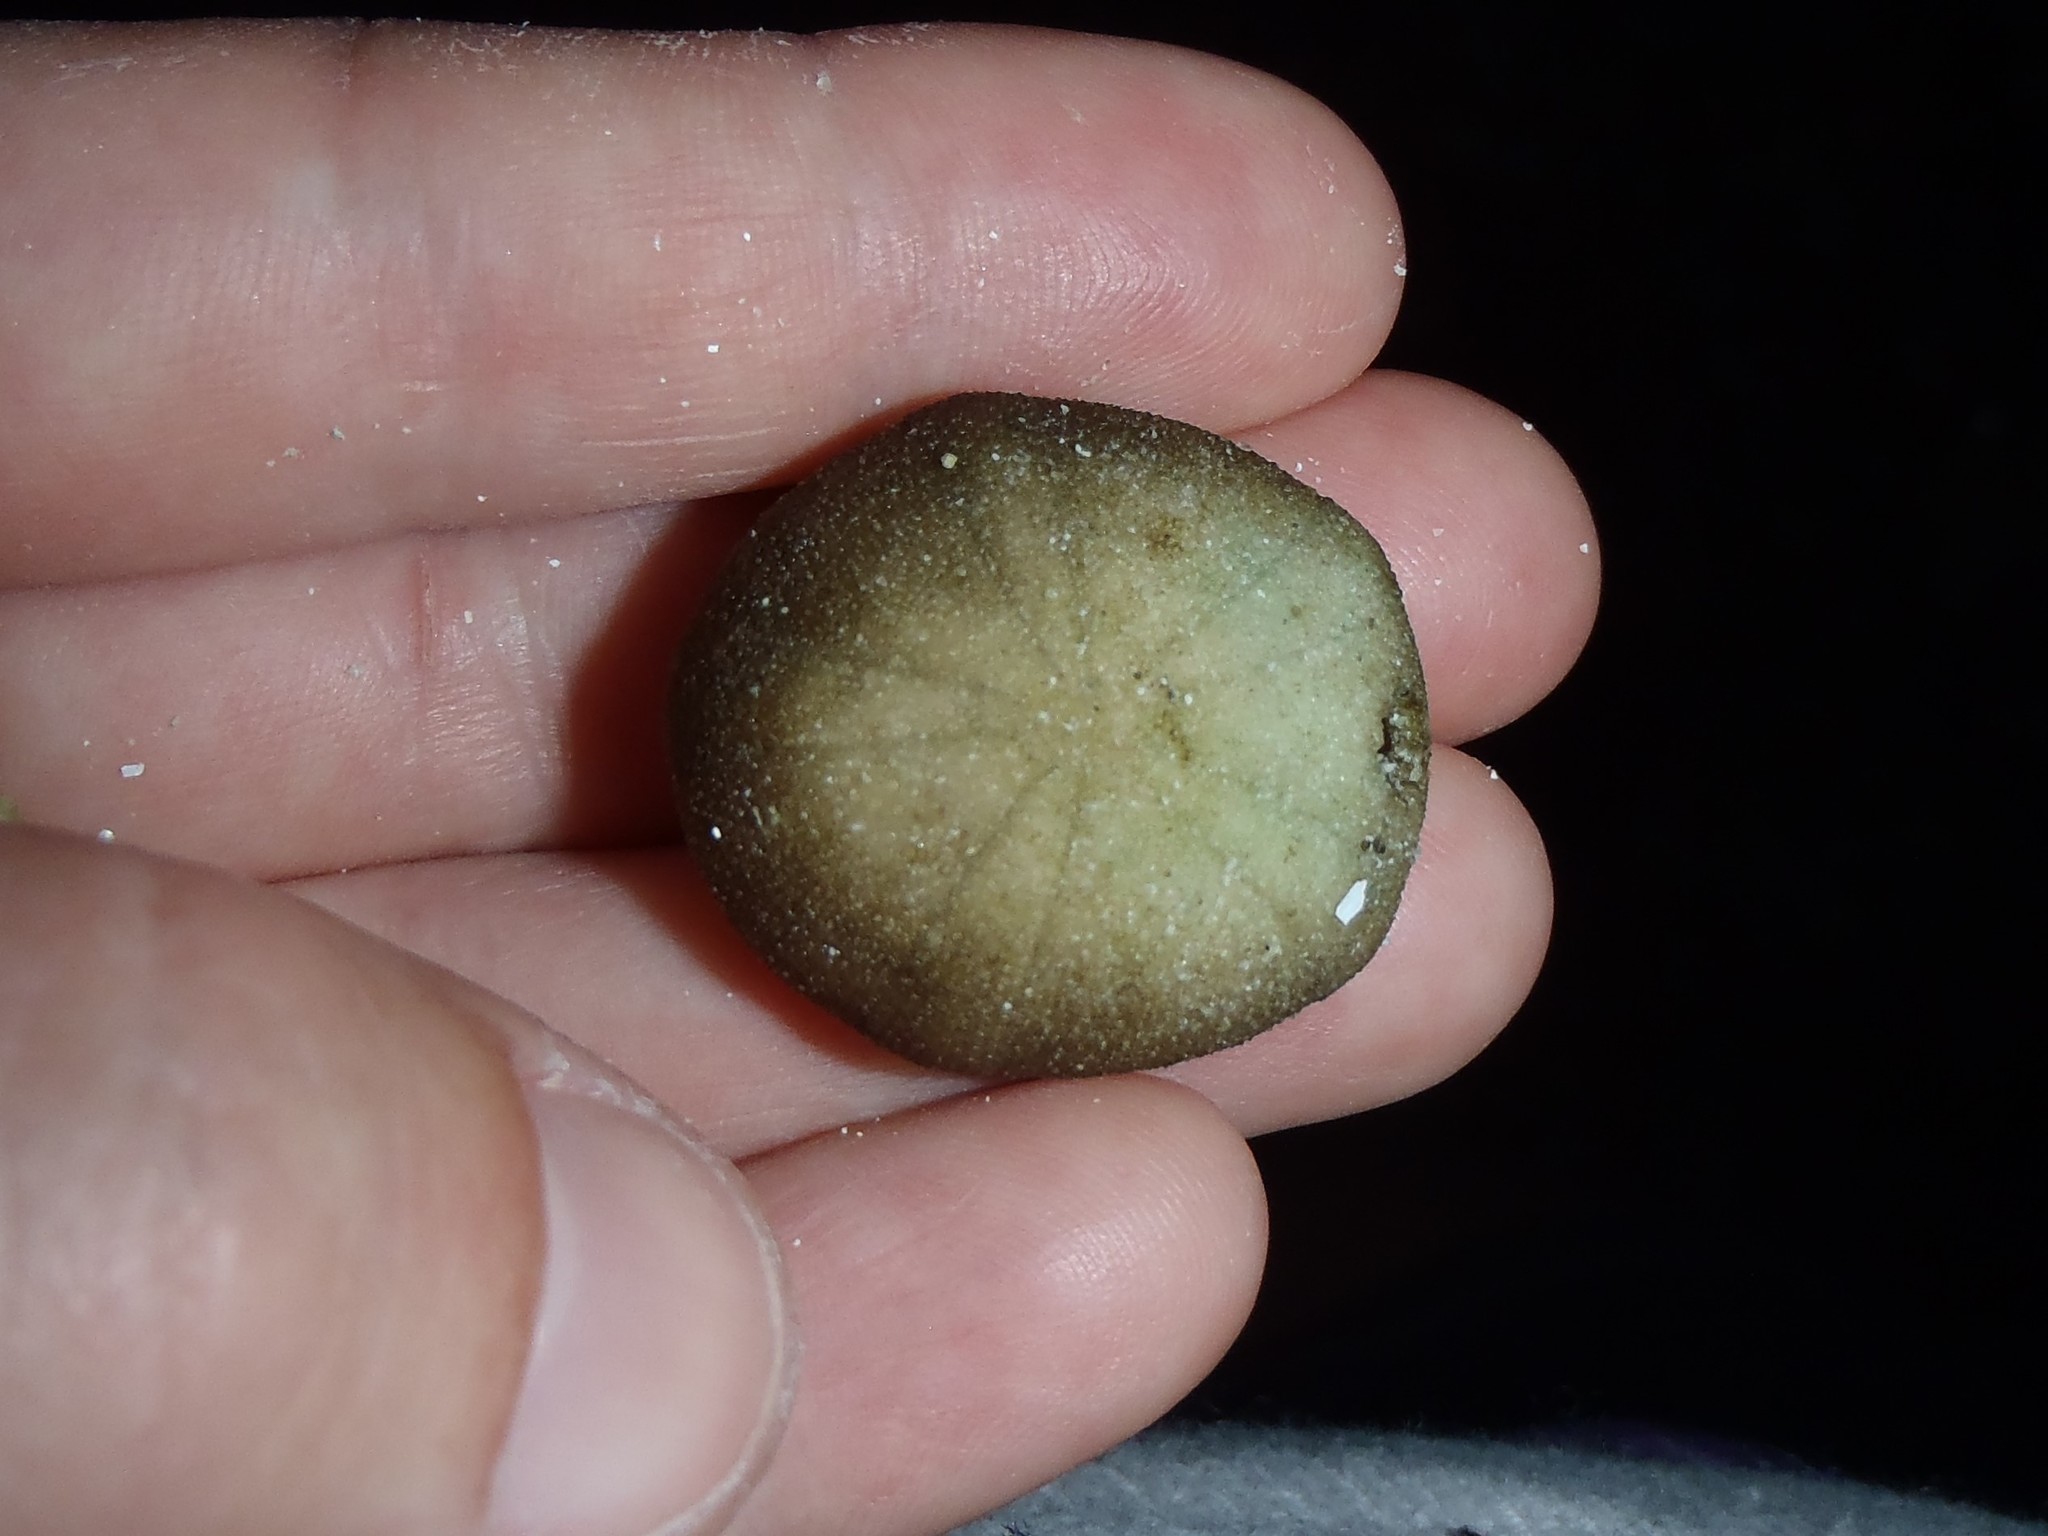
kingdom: Animalia
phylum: Echinodermata
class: Echinoidea
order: Echinoneoida
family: Echinoneidae
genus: Echinoneus
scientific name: Echinoneus cyclostomus
